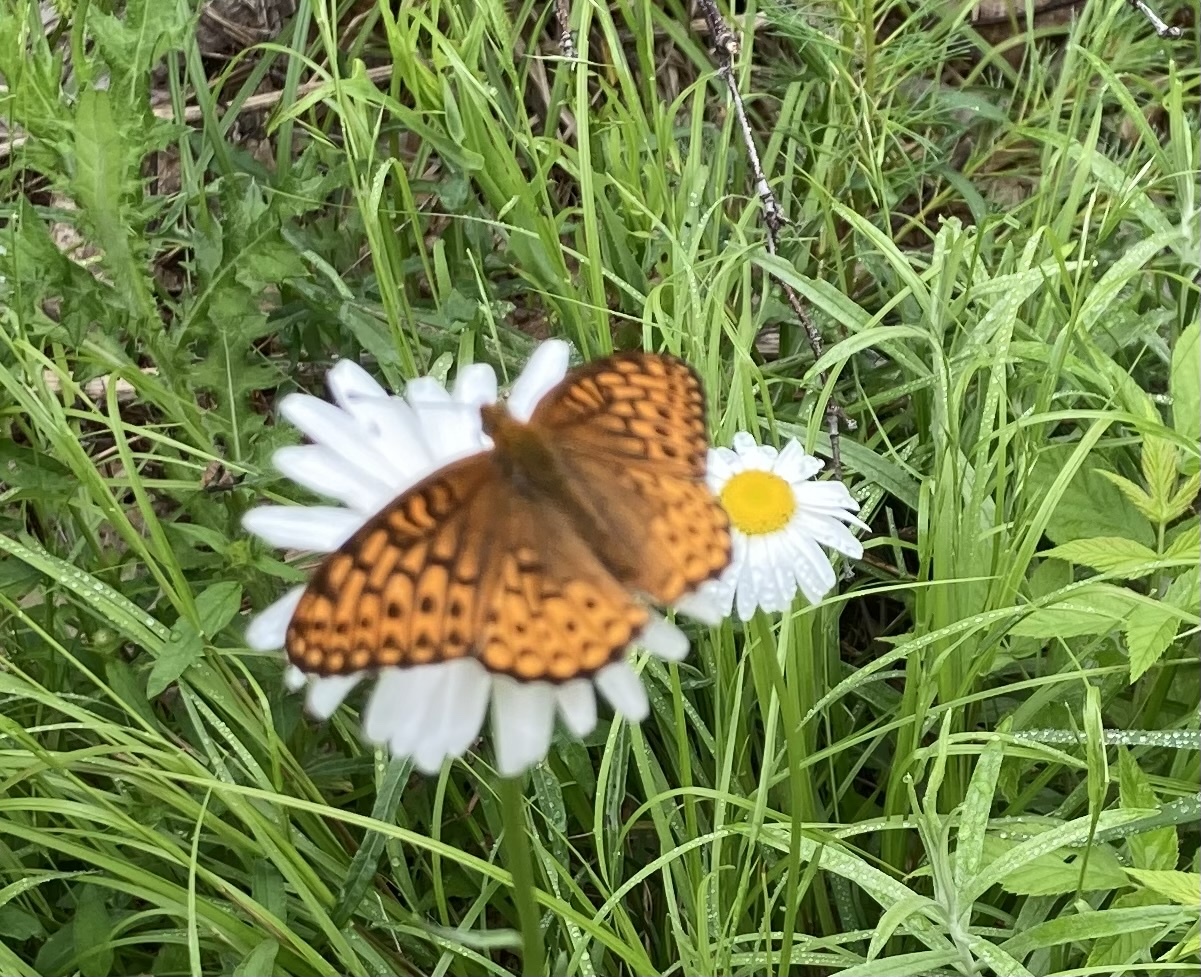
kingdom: Animalia
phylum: Arthropoda
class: Insecta
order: Lepidoptera
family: Nymphalidae
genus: Speyeria
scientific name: Speyeria atlantis
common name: Atlantis fritillary
